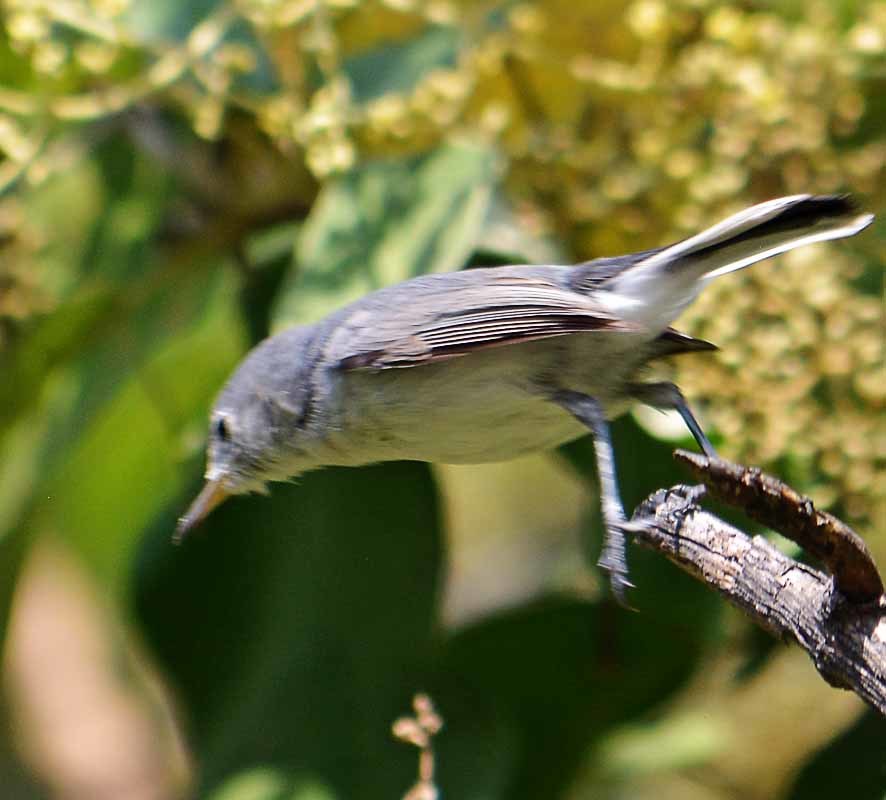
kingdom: Animalia
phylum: Chordata
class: Aves
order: Passeriformes
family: Polioptilidae
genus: Polioptila
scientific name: Polioptila caerulea
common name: Blue-gray gnatcatcher
